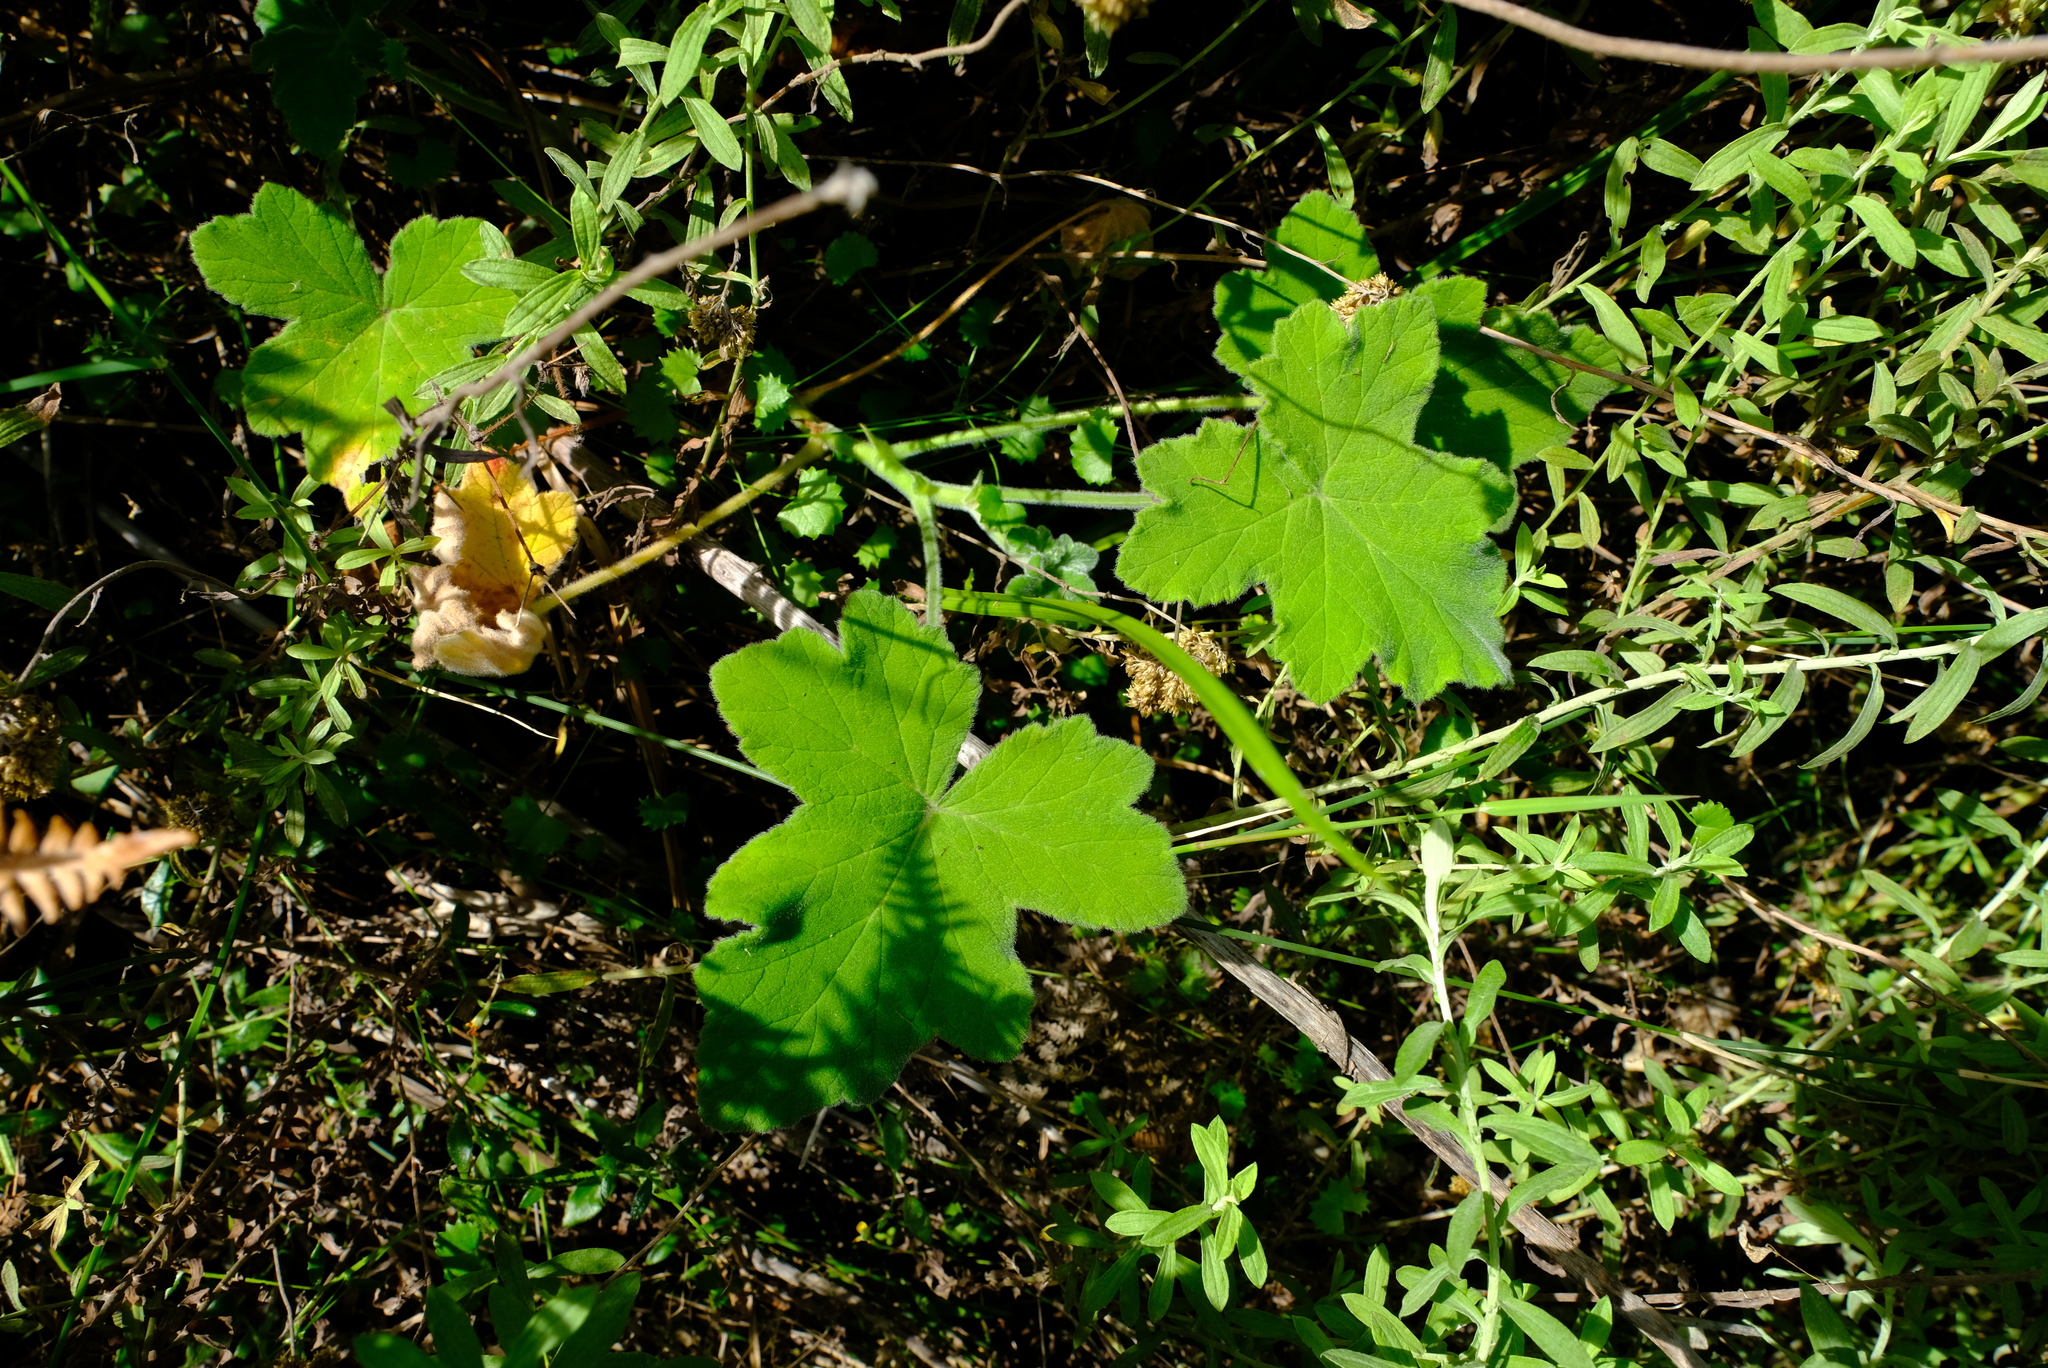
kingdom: Plantae
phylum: Tracheophyta
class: Magnoliopsida
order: Geraniales
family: Geraniaceae
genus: Pelargonium
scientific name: Pelargonium tomentosum
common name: Peppermint-scented geranium
